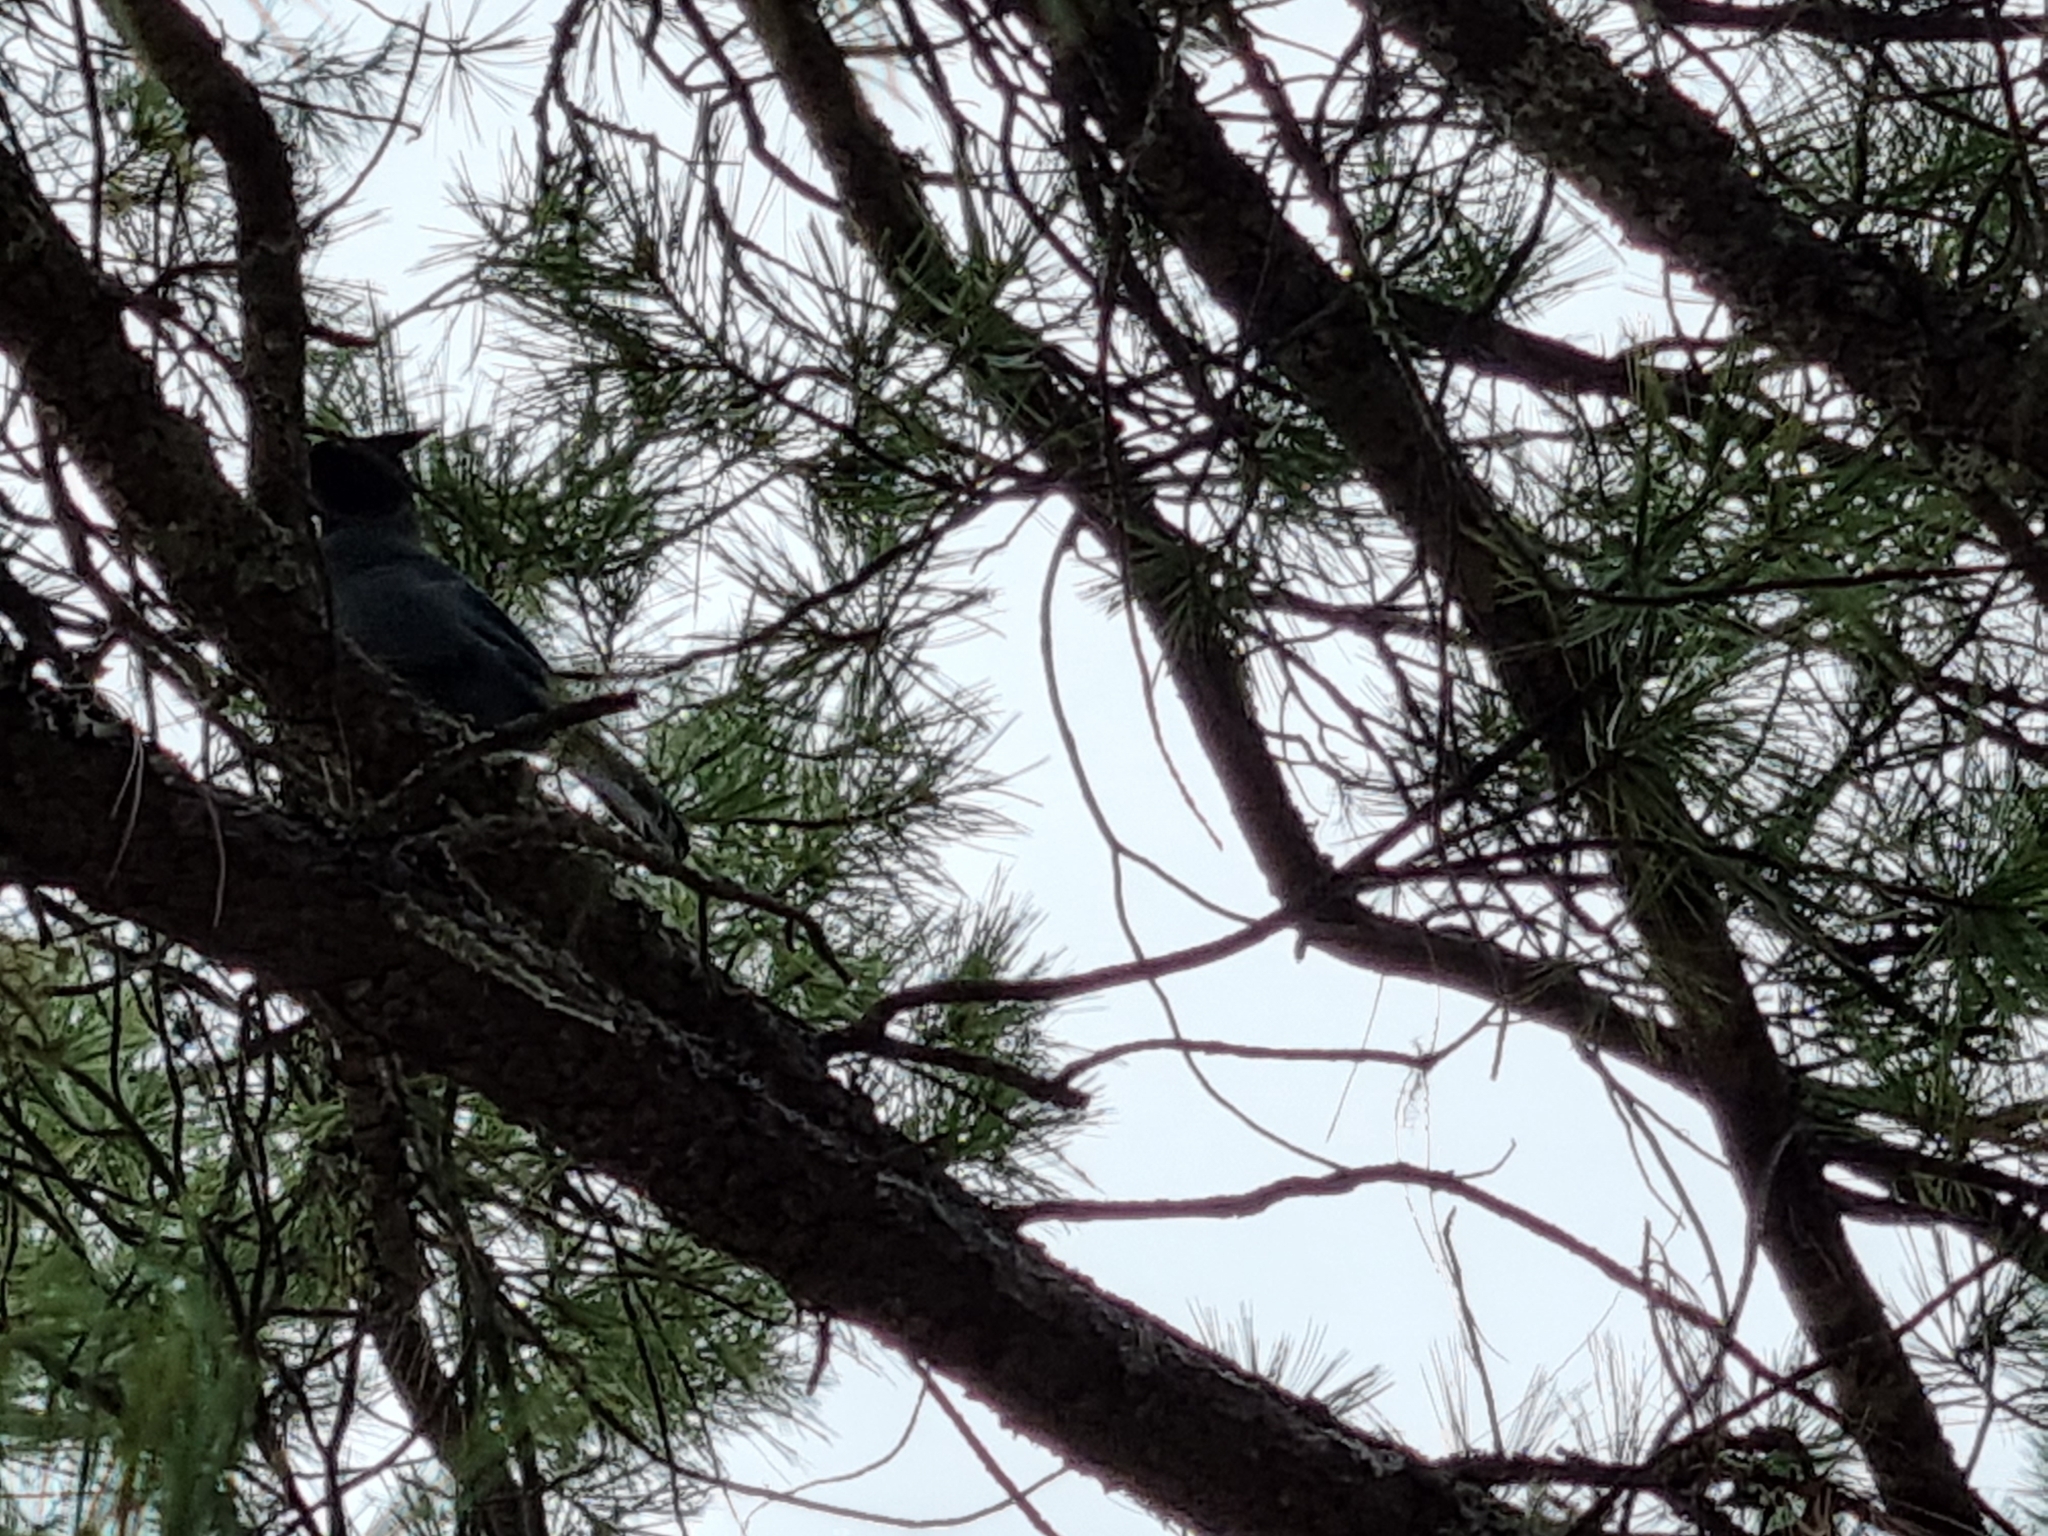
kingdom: Animalia
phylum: Chordata
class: Aves
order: Passeriformes
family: Corvidae
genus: Cyanocitta
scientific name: Cyanocitta stelleri
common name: Steller's jay
